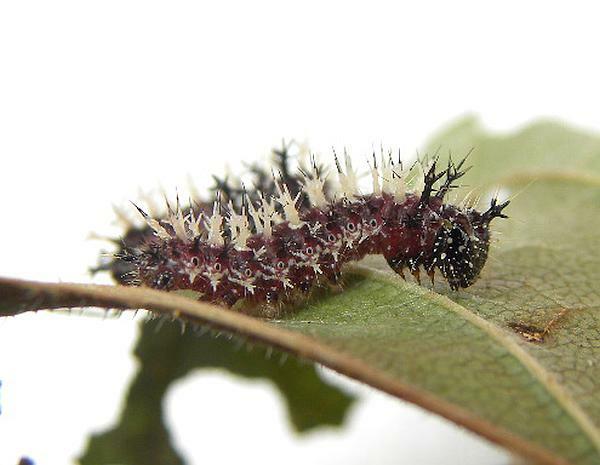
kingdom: Animalia
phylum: Arthropoda
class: Insecta
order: Lepidoptera
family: Nymphalidae
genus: Polygonia
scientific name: Polygonia comma
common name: Eastern comma
